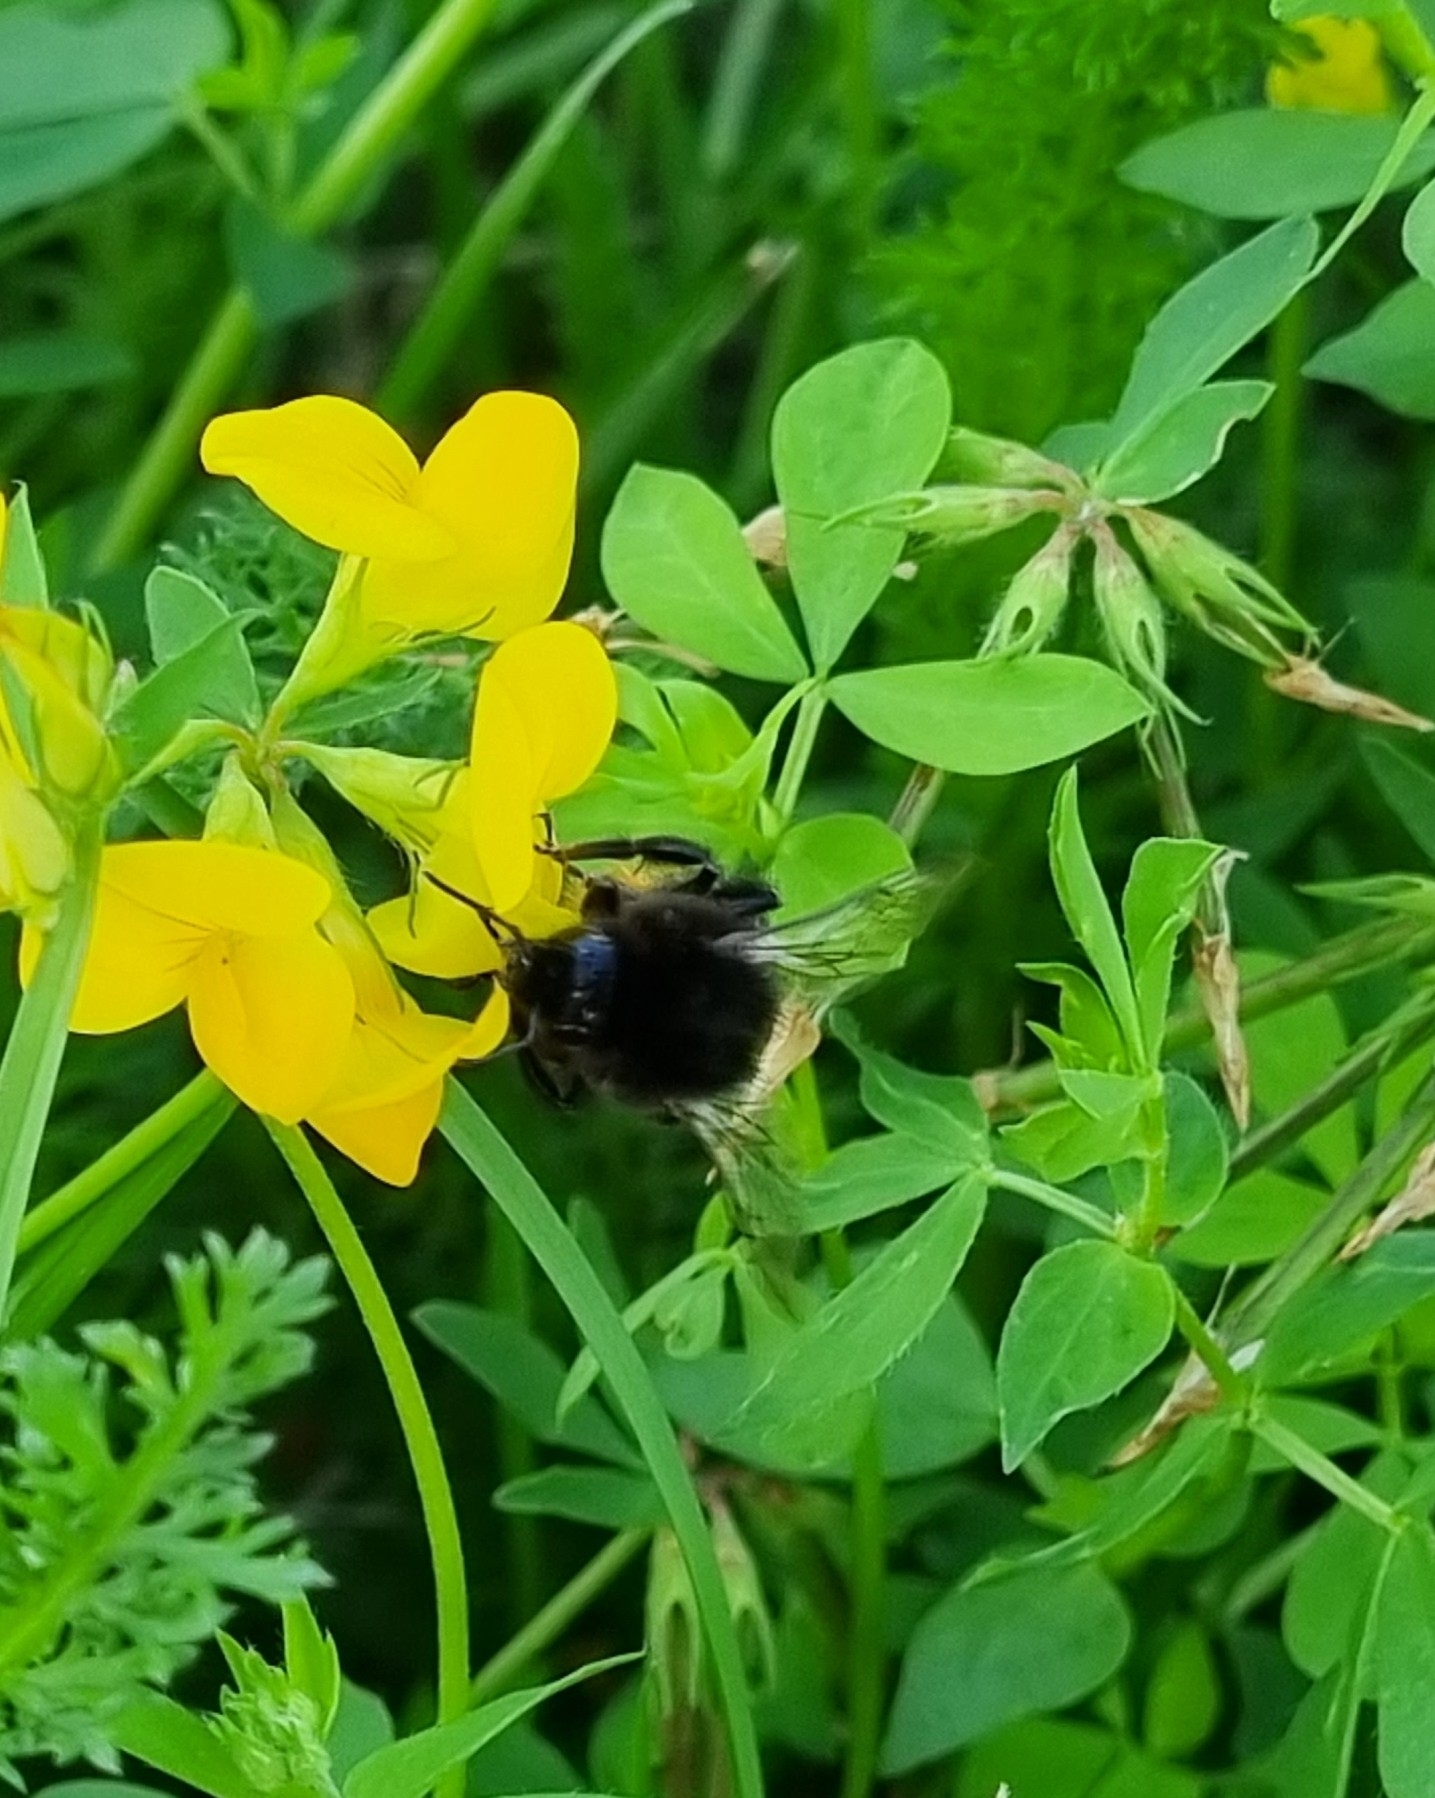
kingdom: Animalia
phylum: Arthropoda
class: Insecta
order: Hymenoptera
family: Apidae
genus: Bombus
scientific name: Bombus lapidarius
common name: Large red-tailed humble-bee
